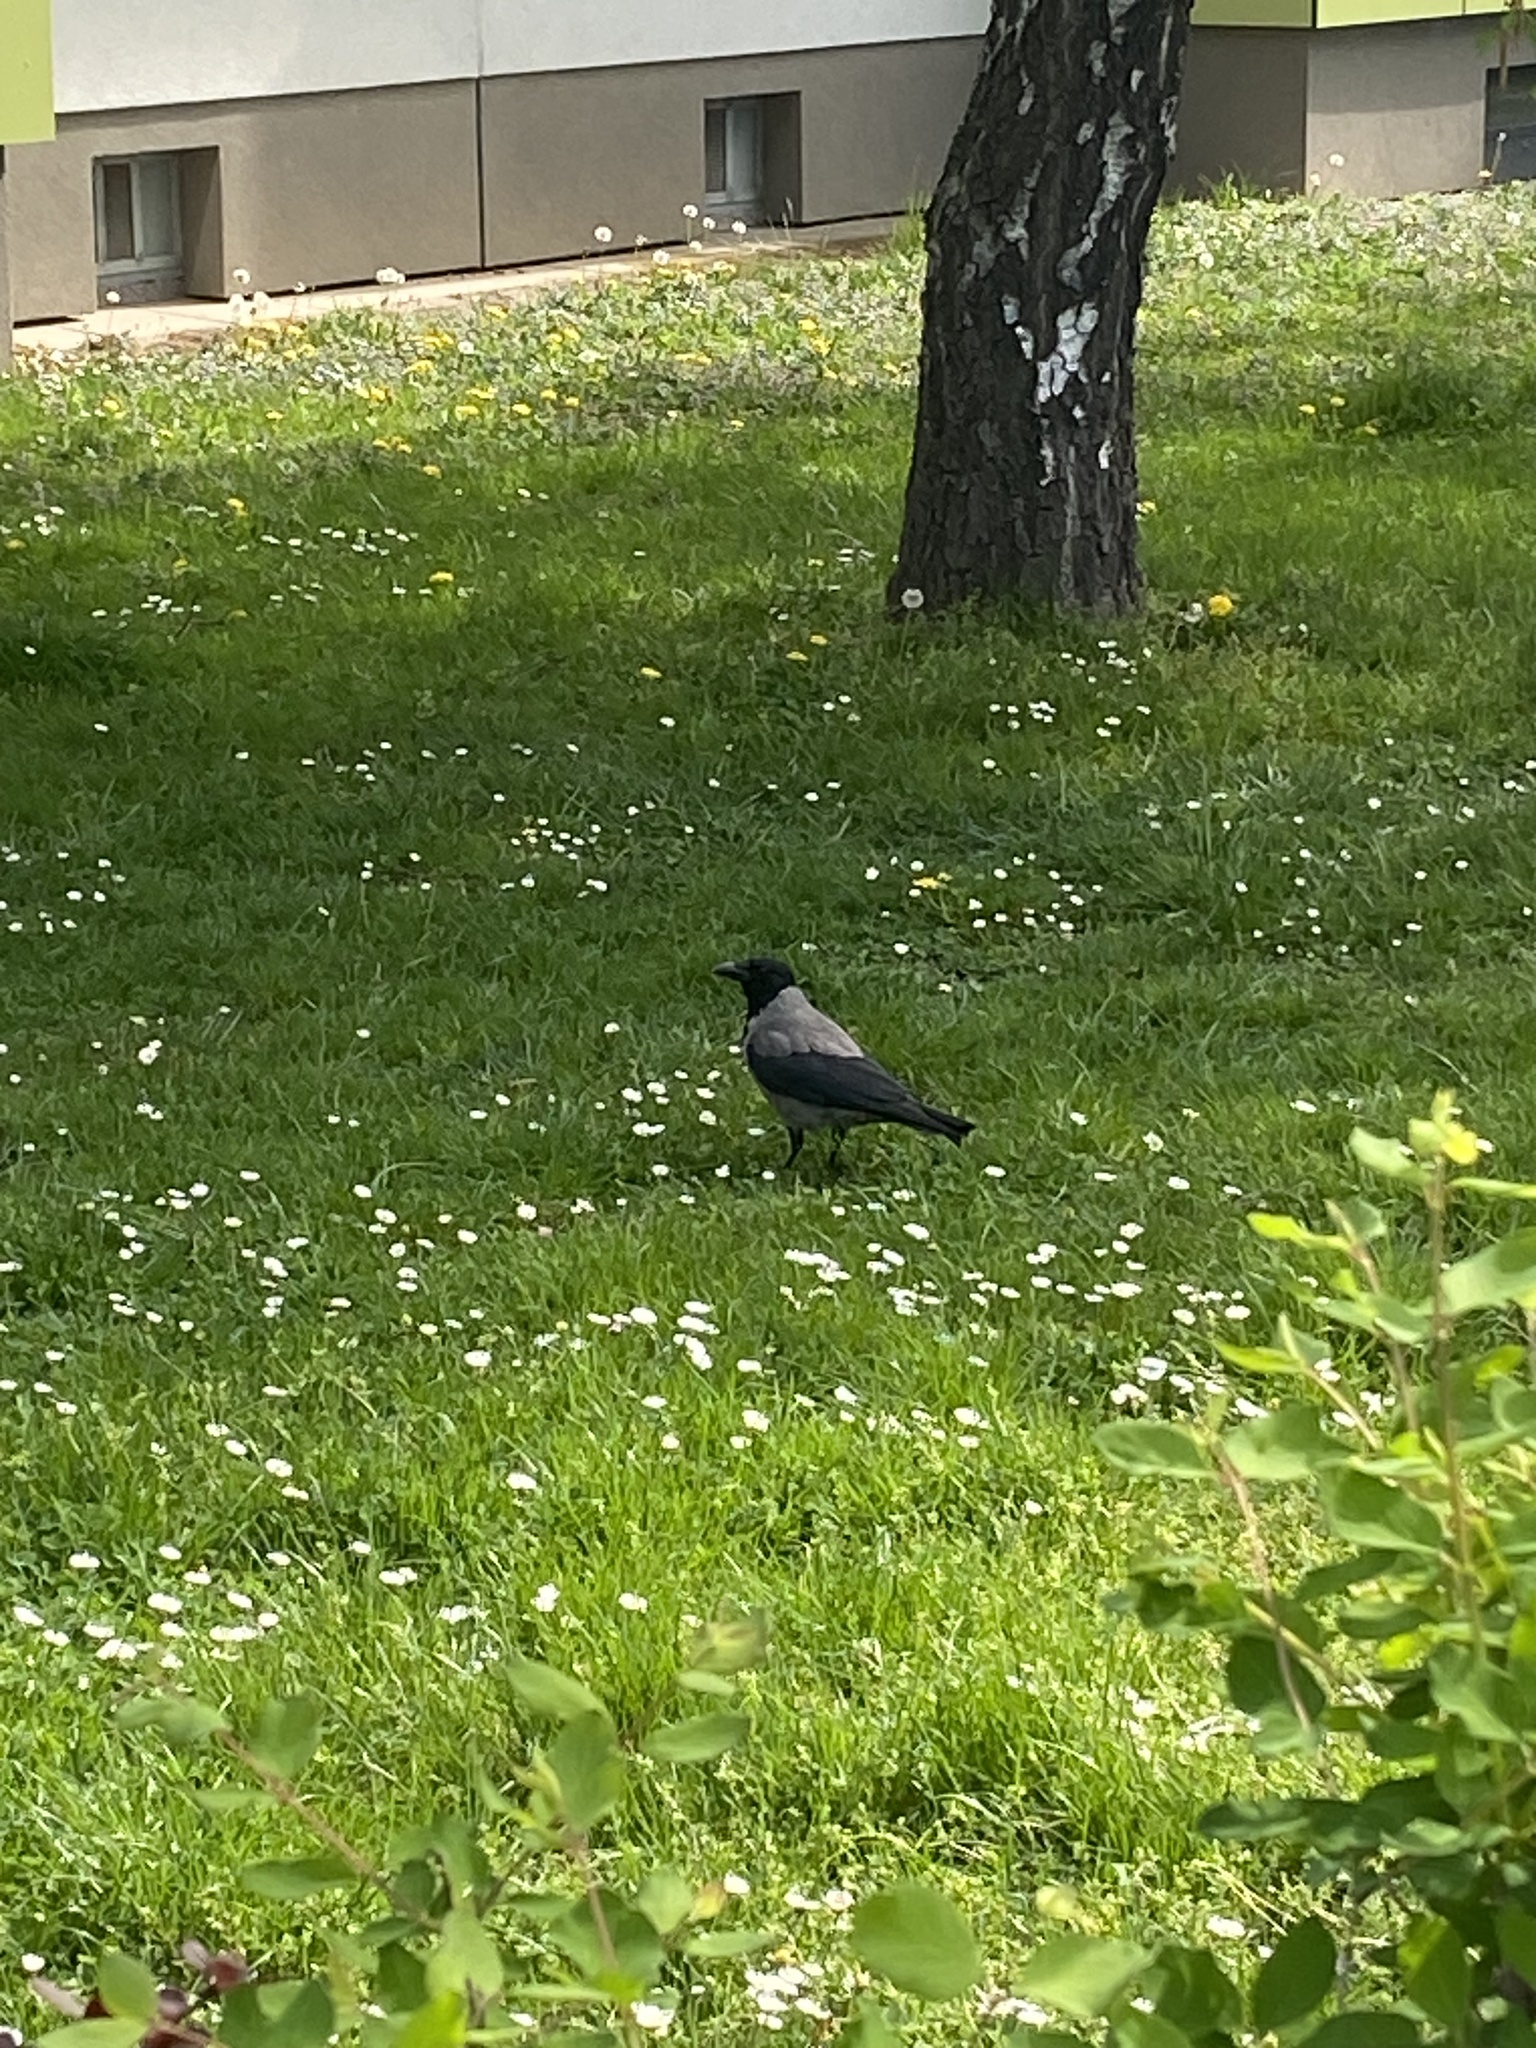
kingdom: Animalia
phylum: Chordata
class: Aves
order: Passeriformes
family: Corvidae
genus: Corvus
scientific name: Corvus cornix
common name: Hooded crow
